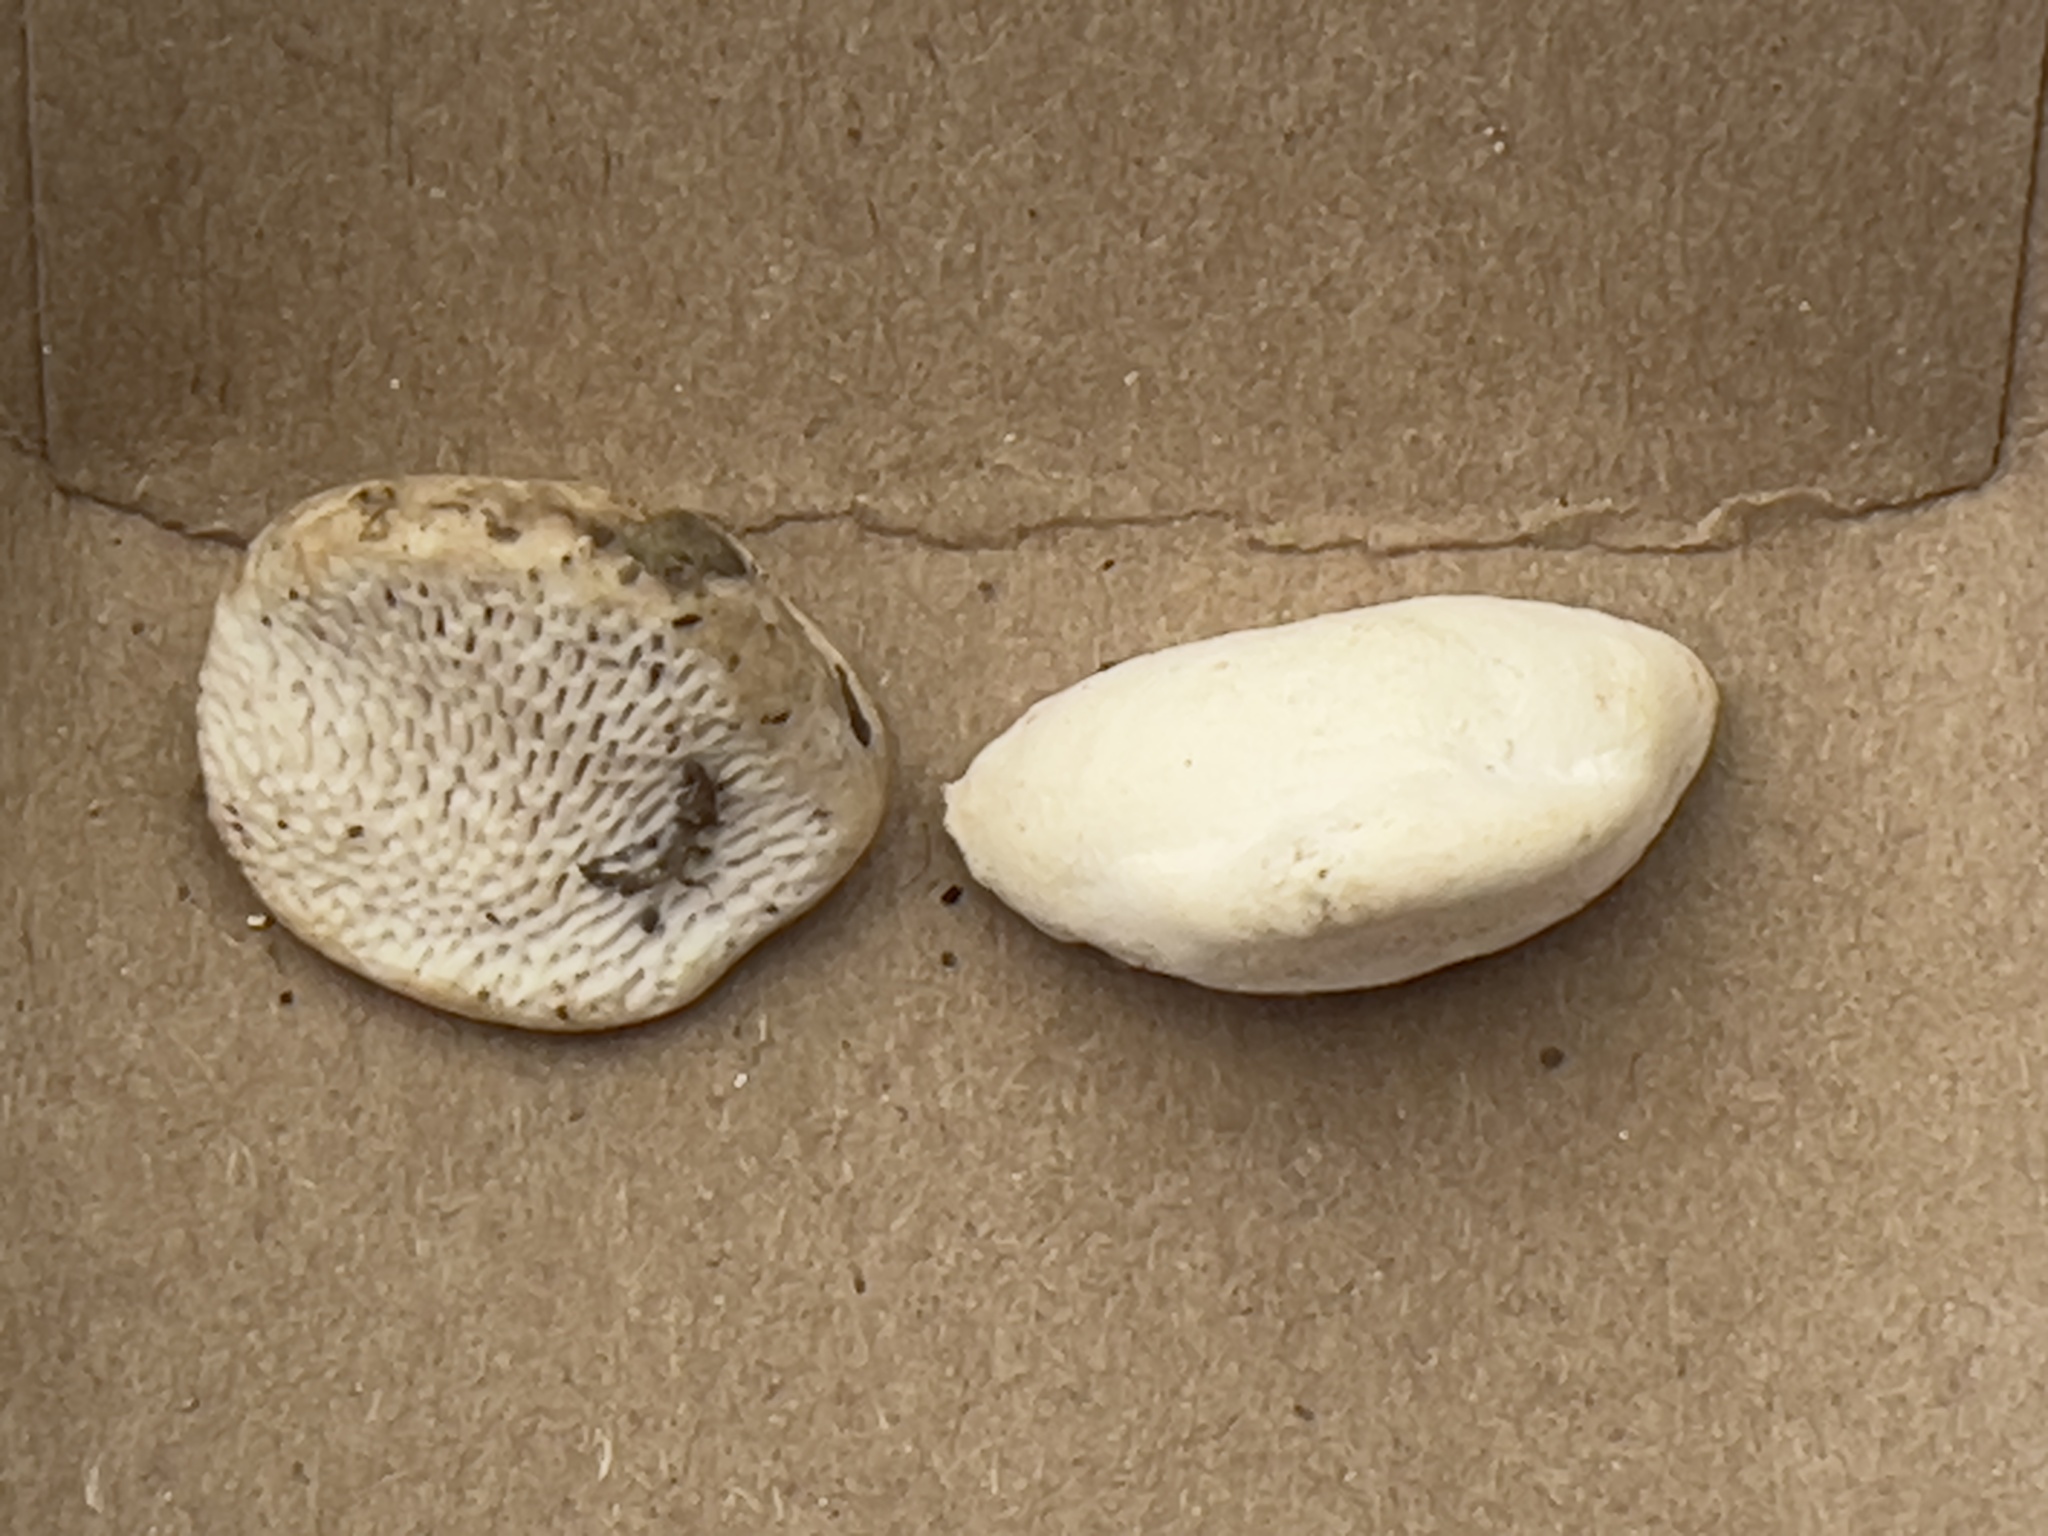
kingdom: Fungi
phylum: Basidiomycota
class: Agaricomycetes
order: Polyporales
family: Polyporaceae
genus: Trametes
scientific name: Trametes gibbosa
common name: Lumpy bracket
